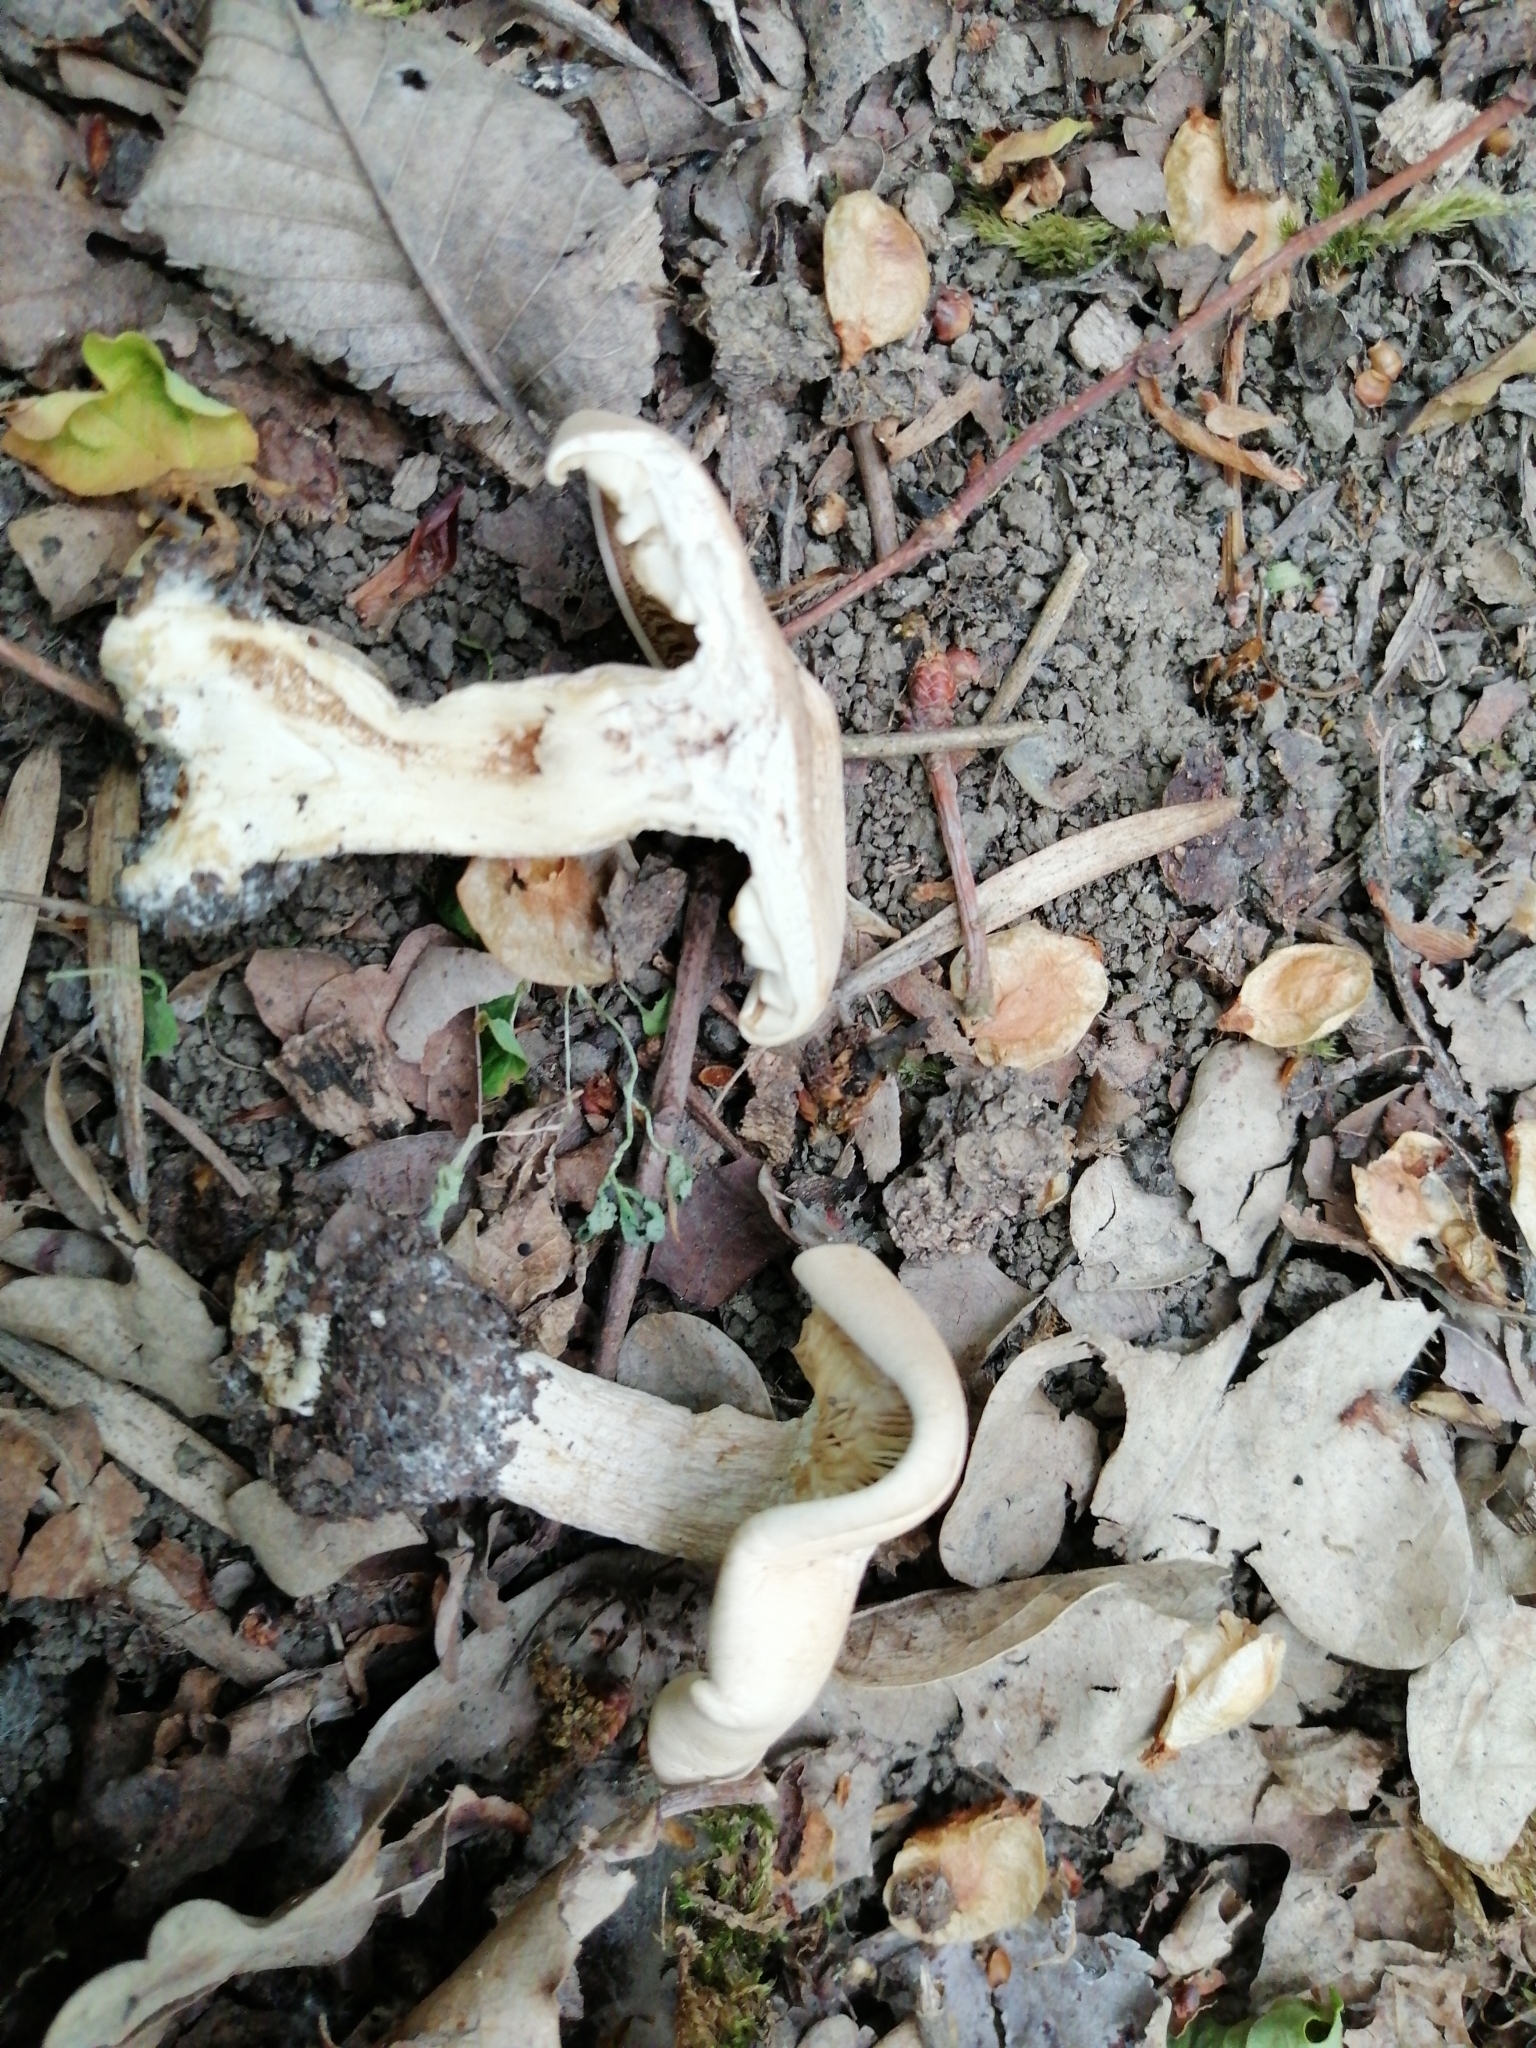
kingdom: Fungi
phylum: Basidiomycota
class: Agaricomycetes
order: Agaricales
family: Lyophyllaceae
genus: Calocybe
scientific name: Calocybe gambosa
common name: St. george's mushroom
